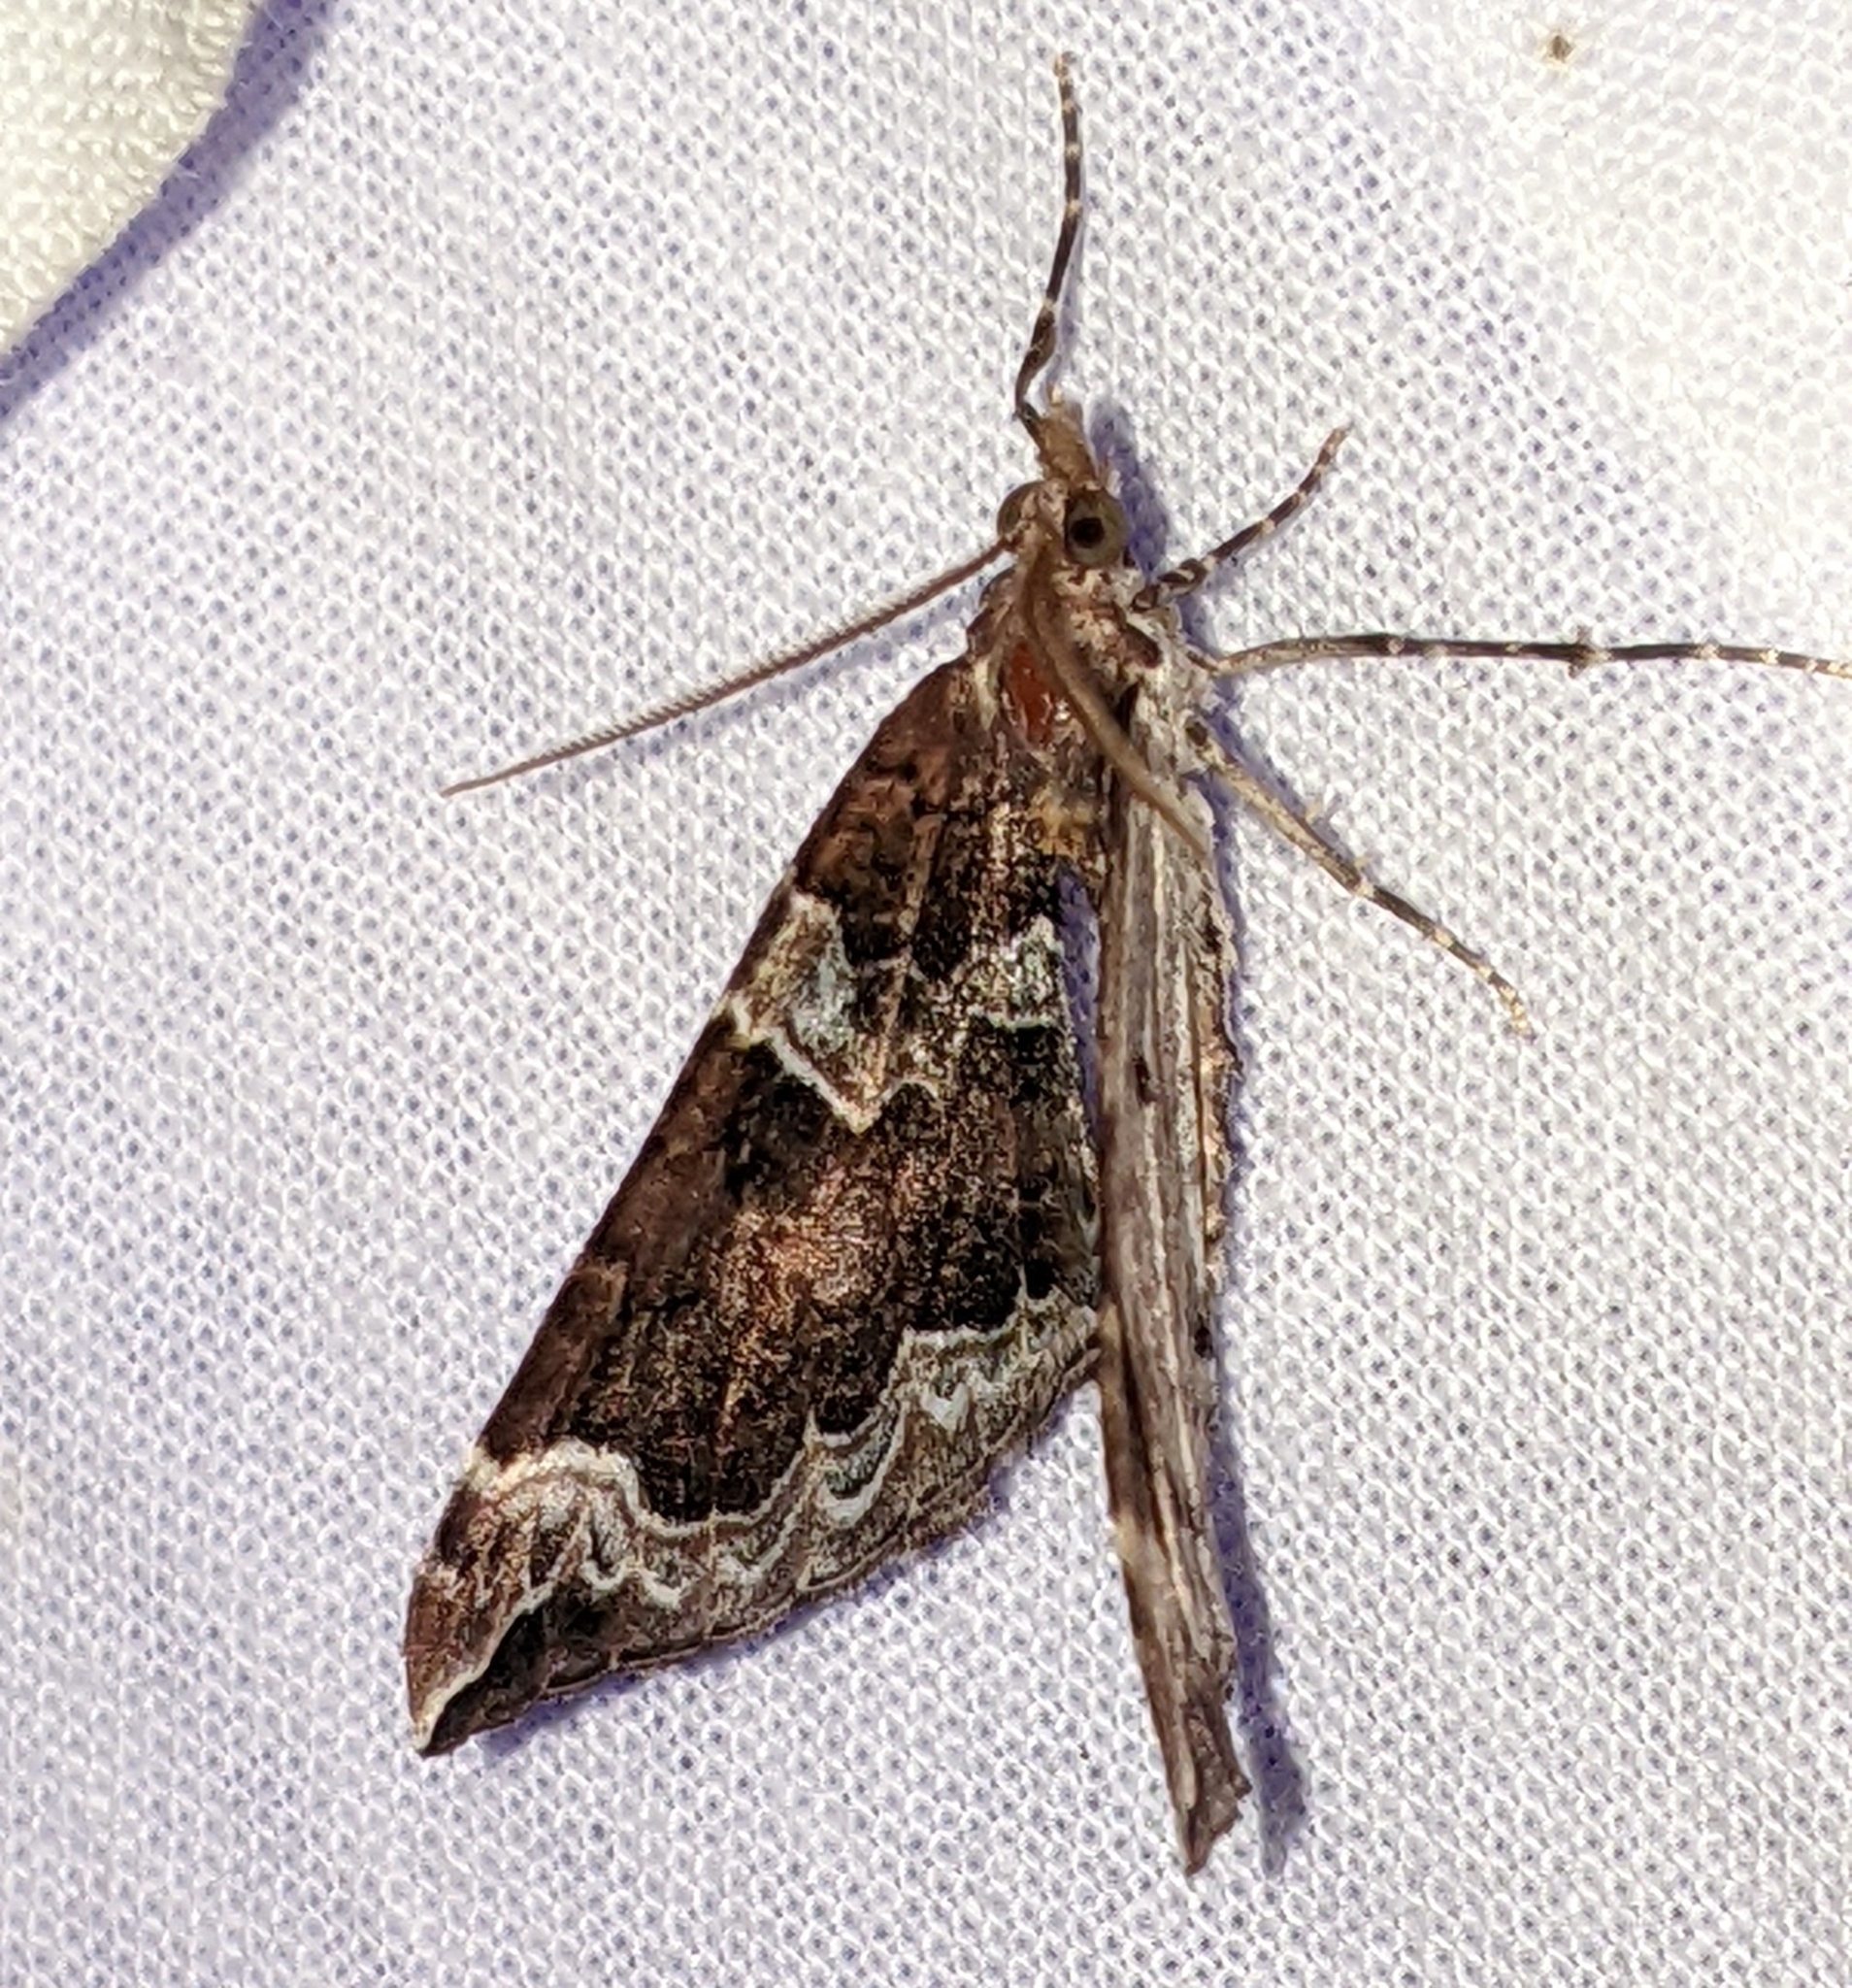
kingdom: Animalia
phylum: Arthropoda
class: Insecta
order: Lepidoptera
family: Geometridae
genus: Eulithis
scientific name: Eulithis xylina
